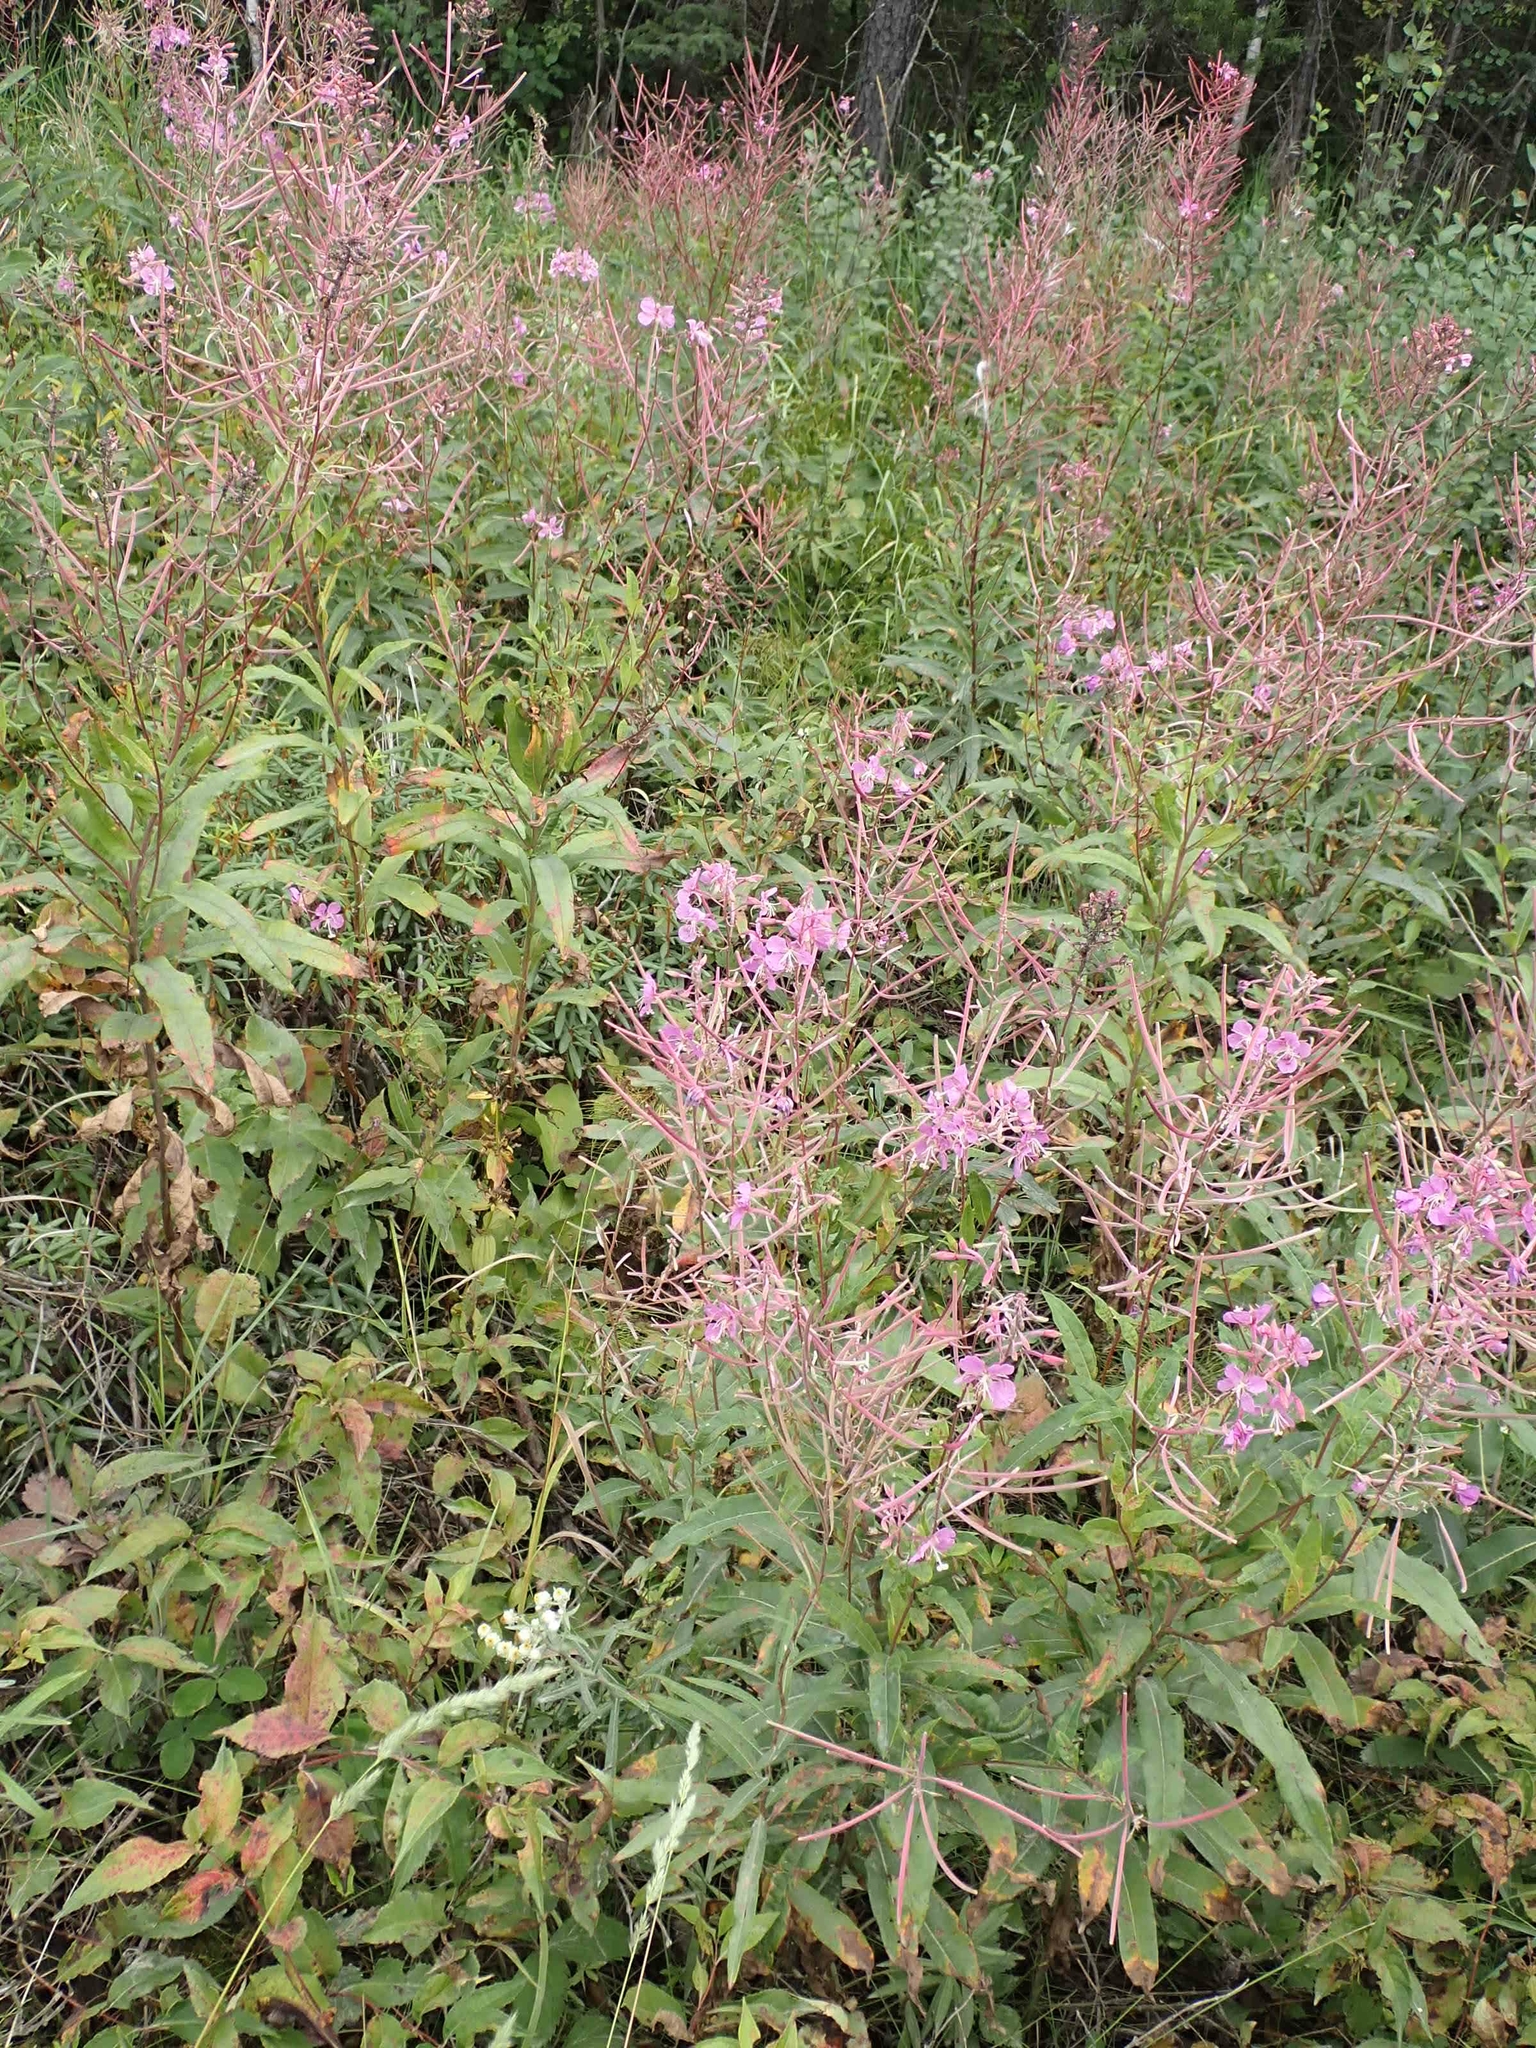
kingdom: Plantae
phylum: Tracheophyta
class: Magnoliopsida
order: Myrtales
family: Onagraceae
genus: Chamaenerion
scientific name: Chamaenerion angustifolium
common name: Fireweed
